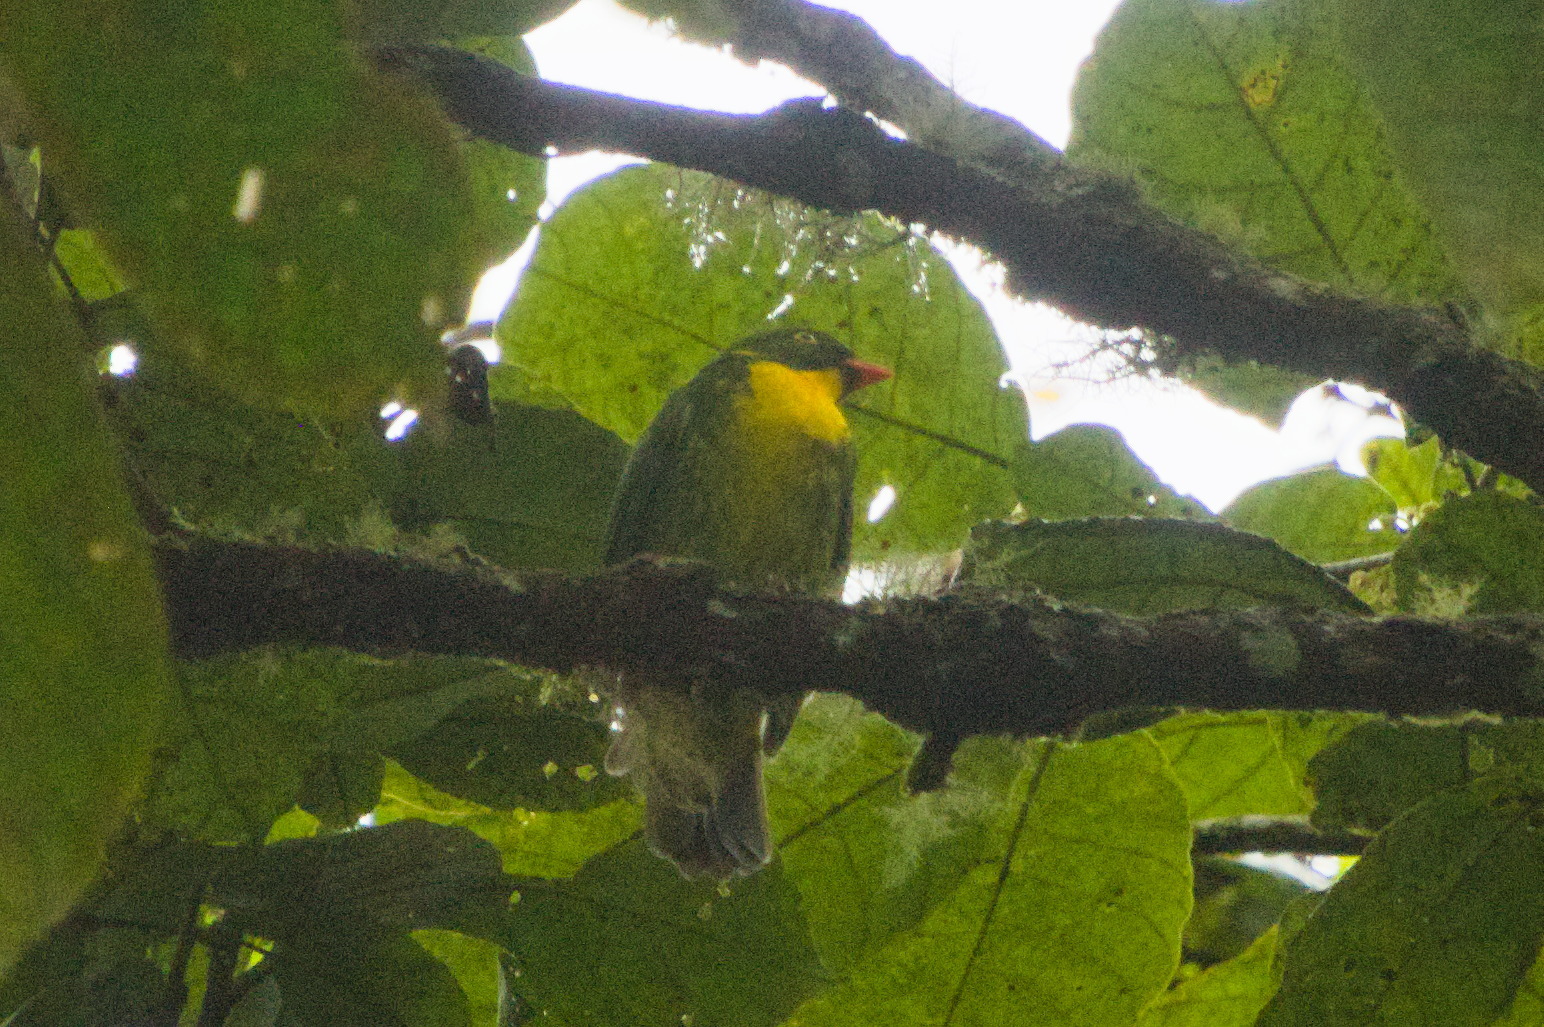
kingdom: Animalia
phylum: Chordata
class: Aves
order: Passeriformes
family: Cotingidae
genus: Pipreola
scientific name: Pipreola aureopectus
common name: Golden-breasted fruiteater
